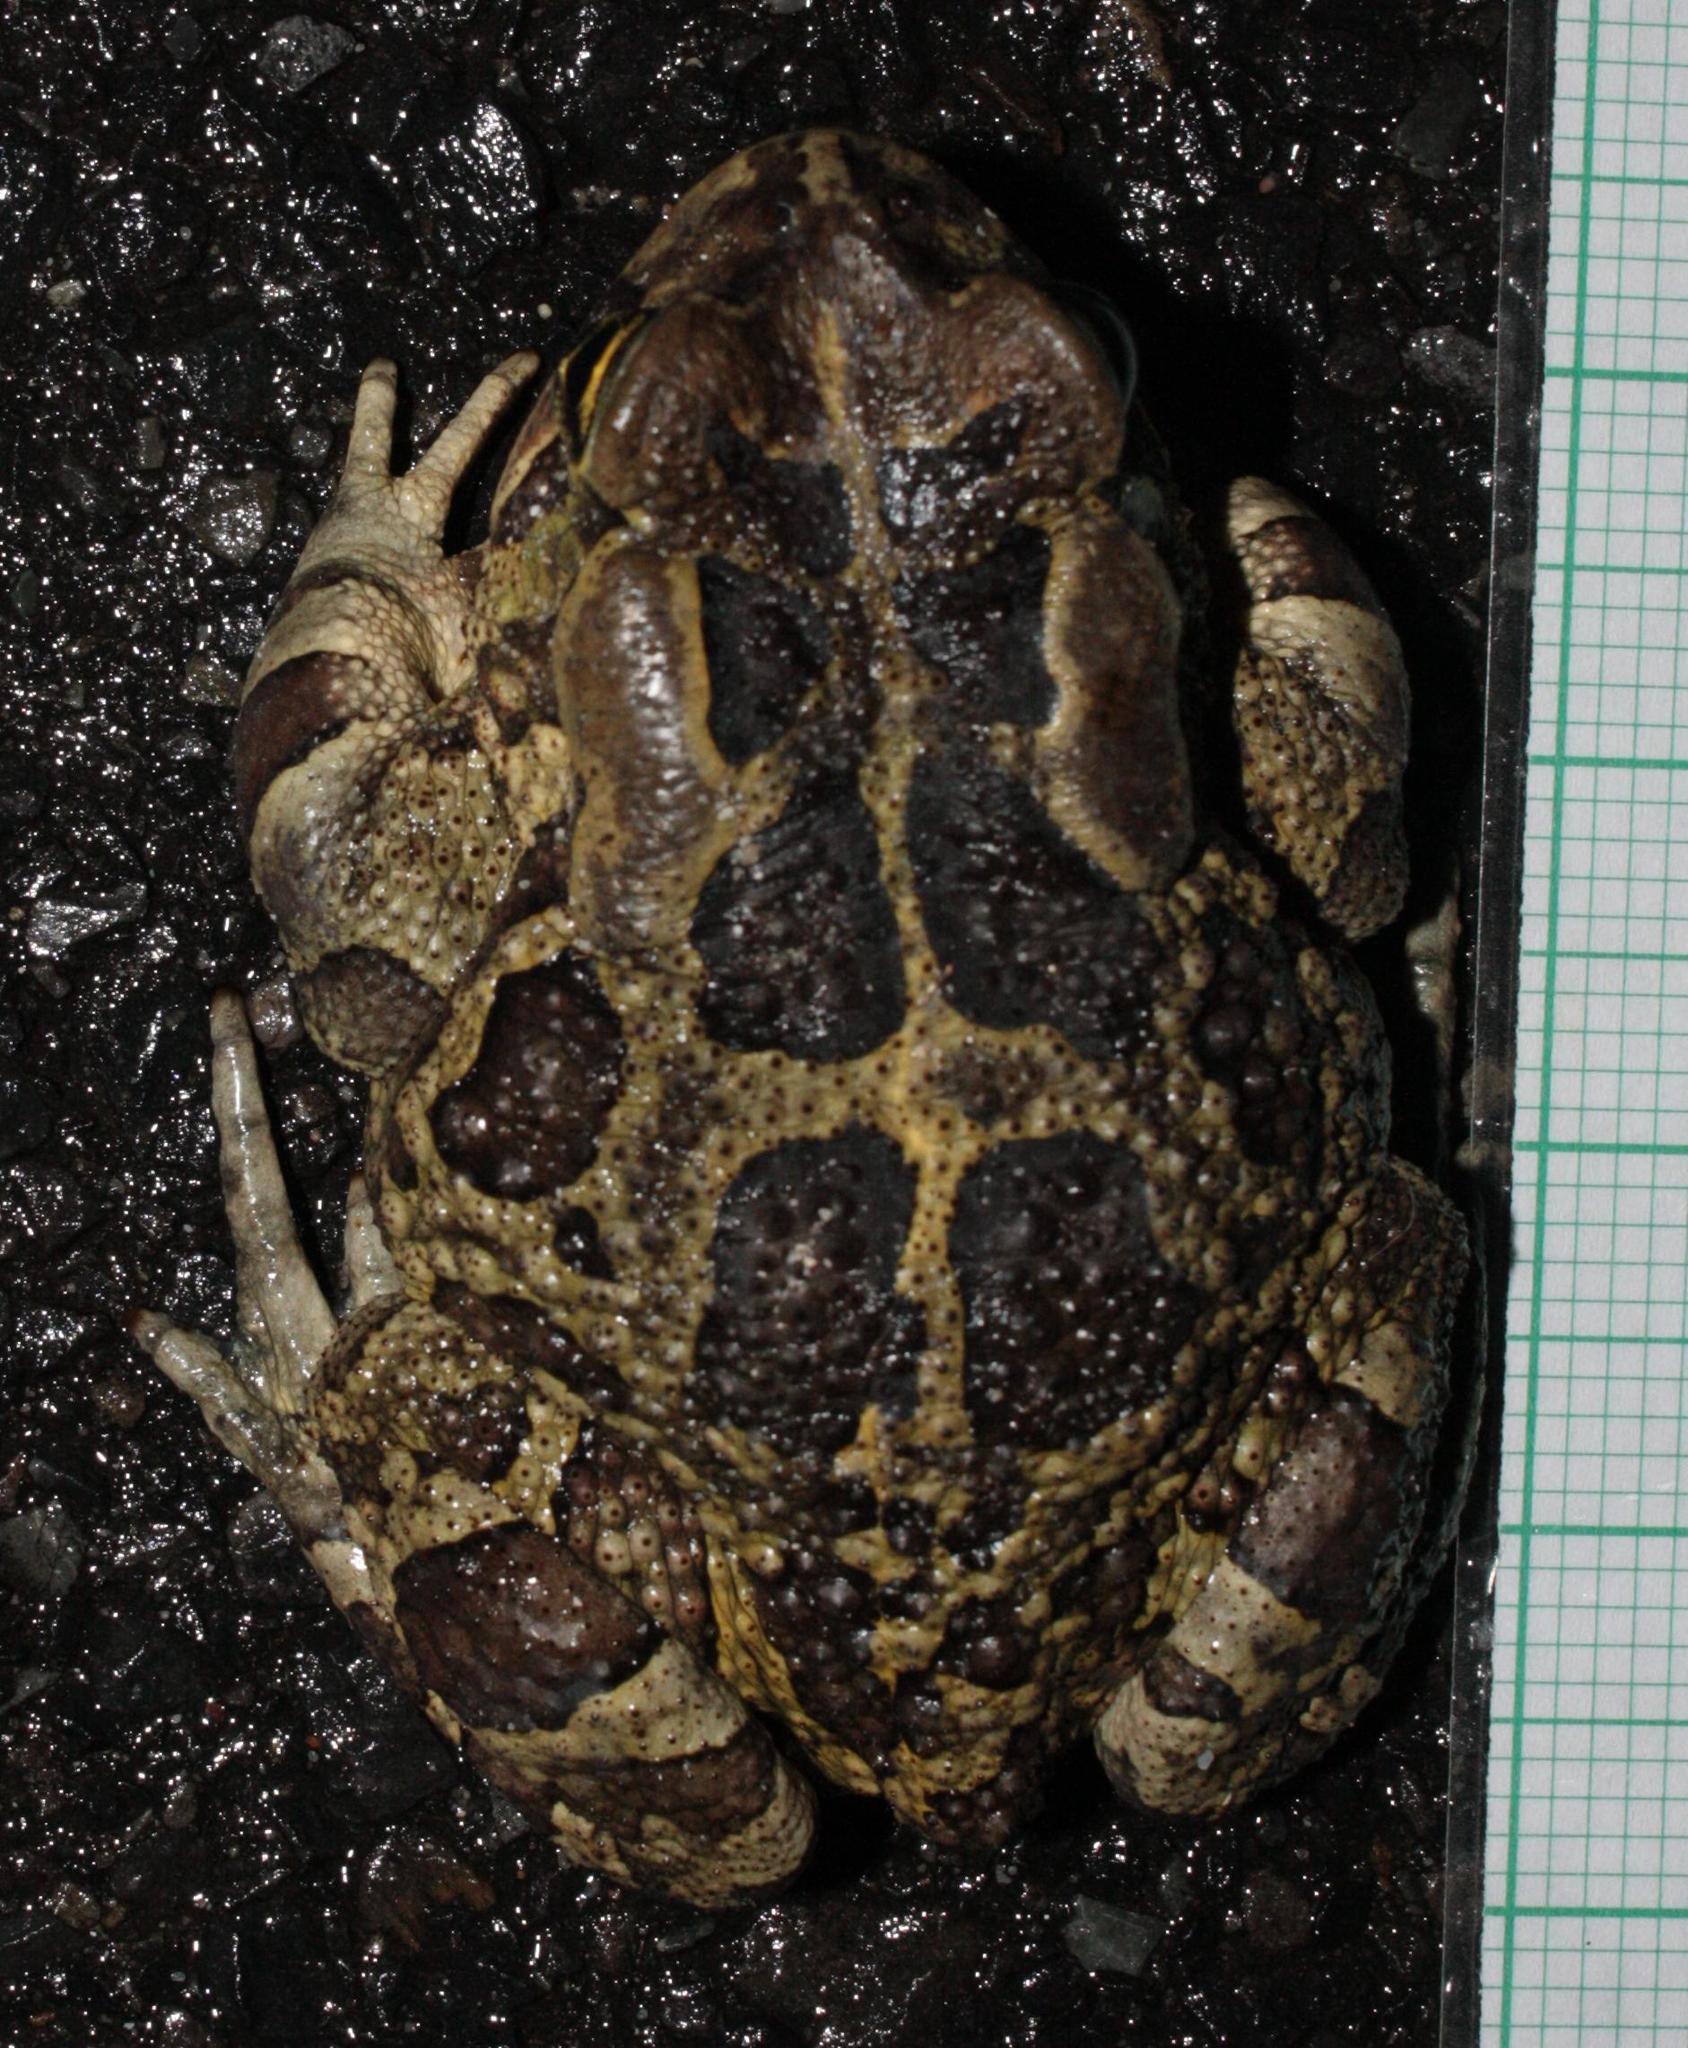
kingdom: Animalia
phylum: Chordata
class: Amphibia
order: Anura
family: Bufonidae
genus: Sclerophrys
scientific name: Sclerophrys pantherina
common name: Panther toad
